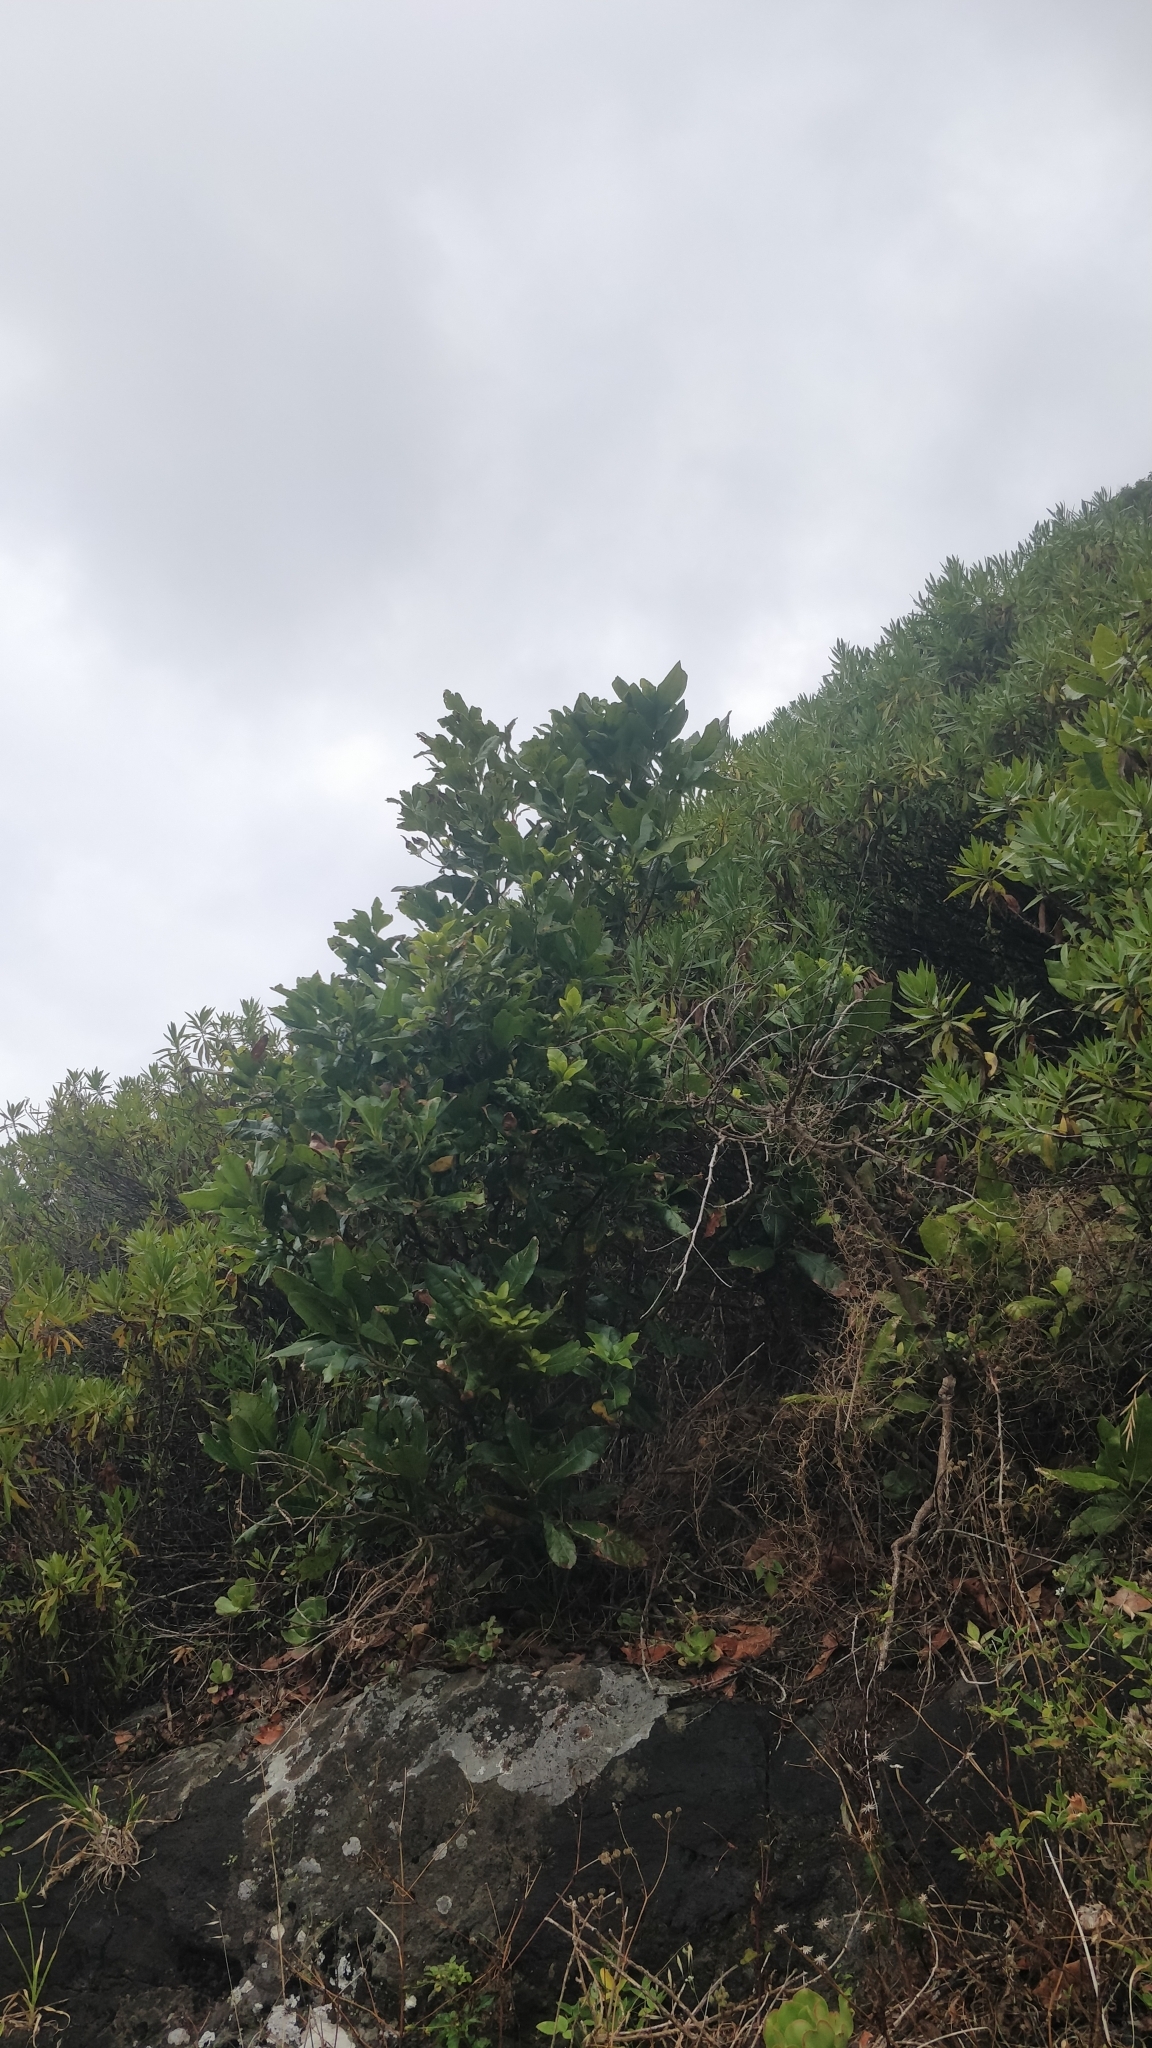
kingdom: Plantae
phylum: Tracheophyta
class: Magnoliopsida
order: Laurales
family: Lauraceae
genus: Apollonias
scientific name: Apollonias barbujana
